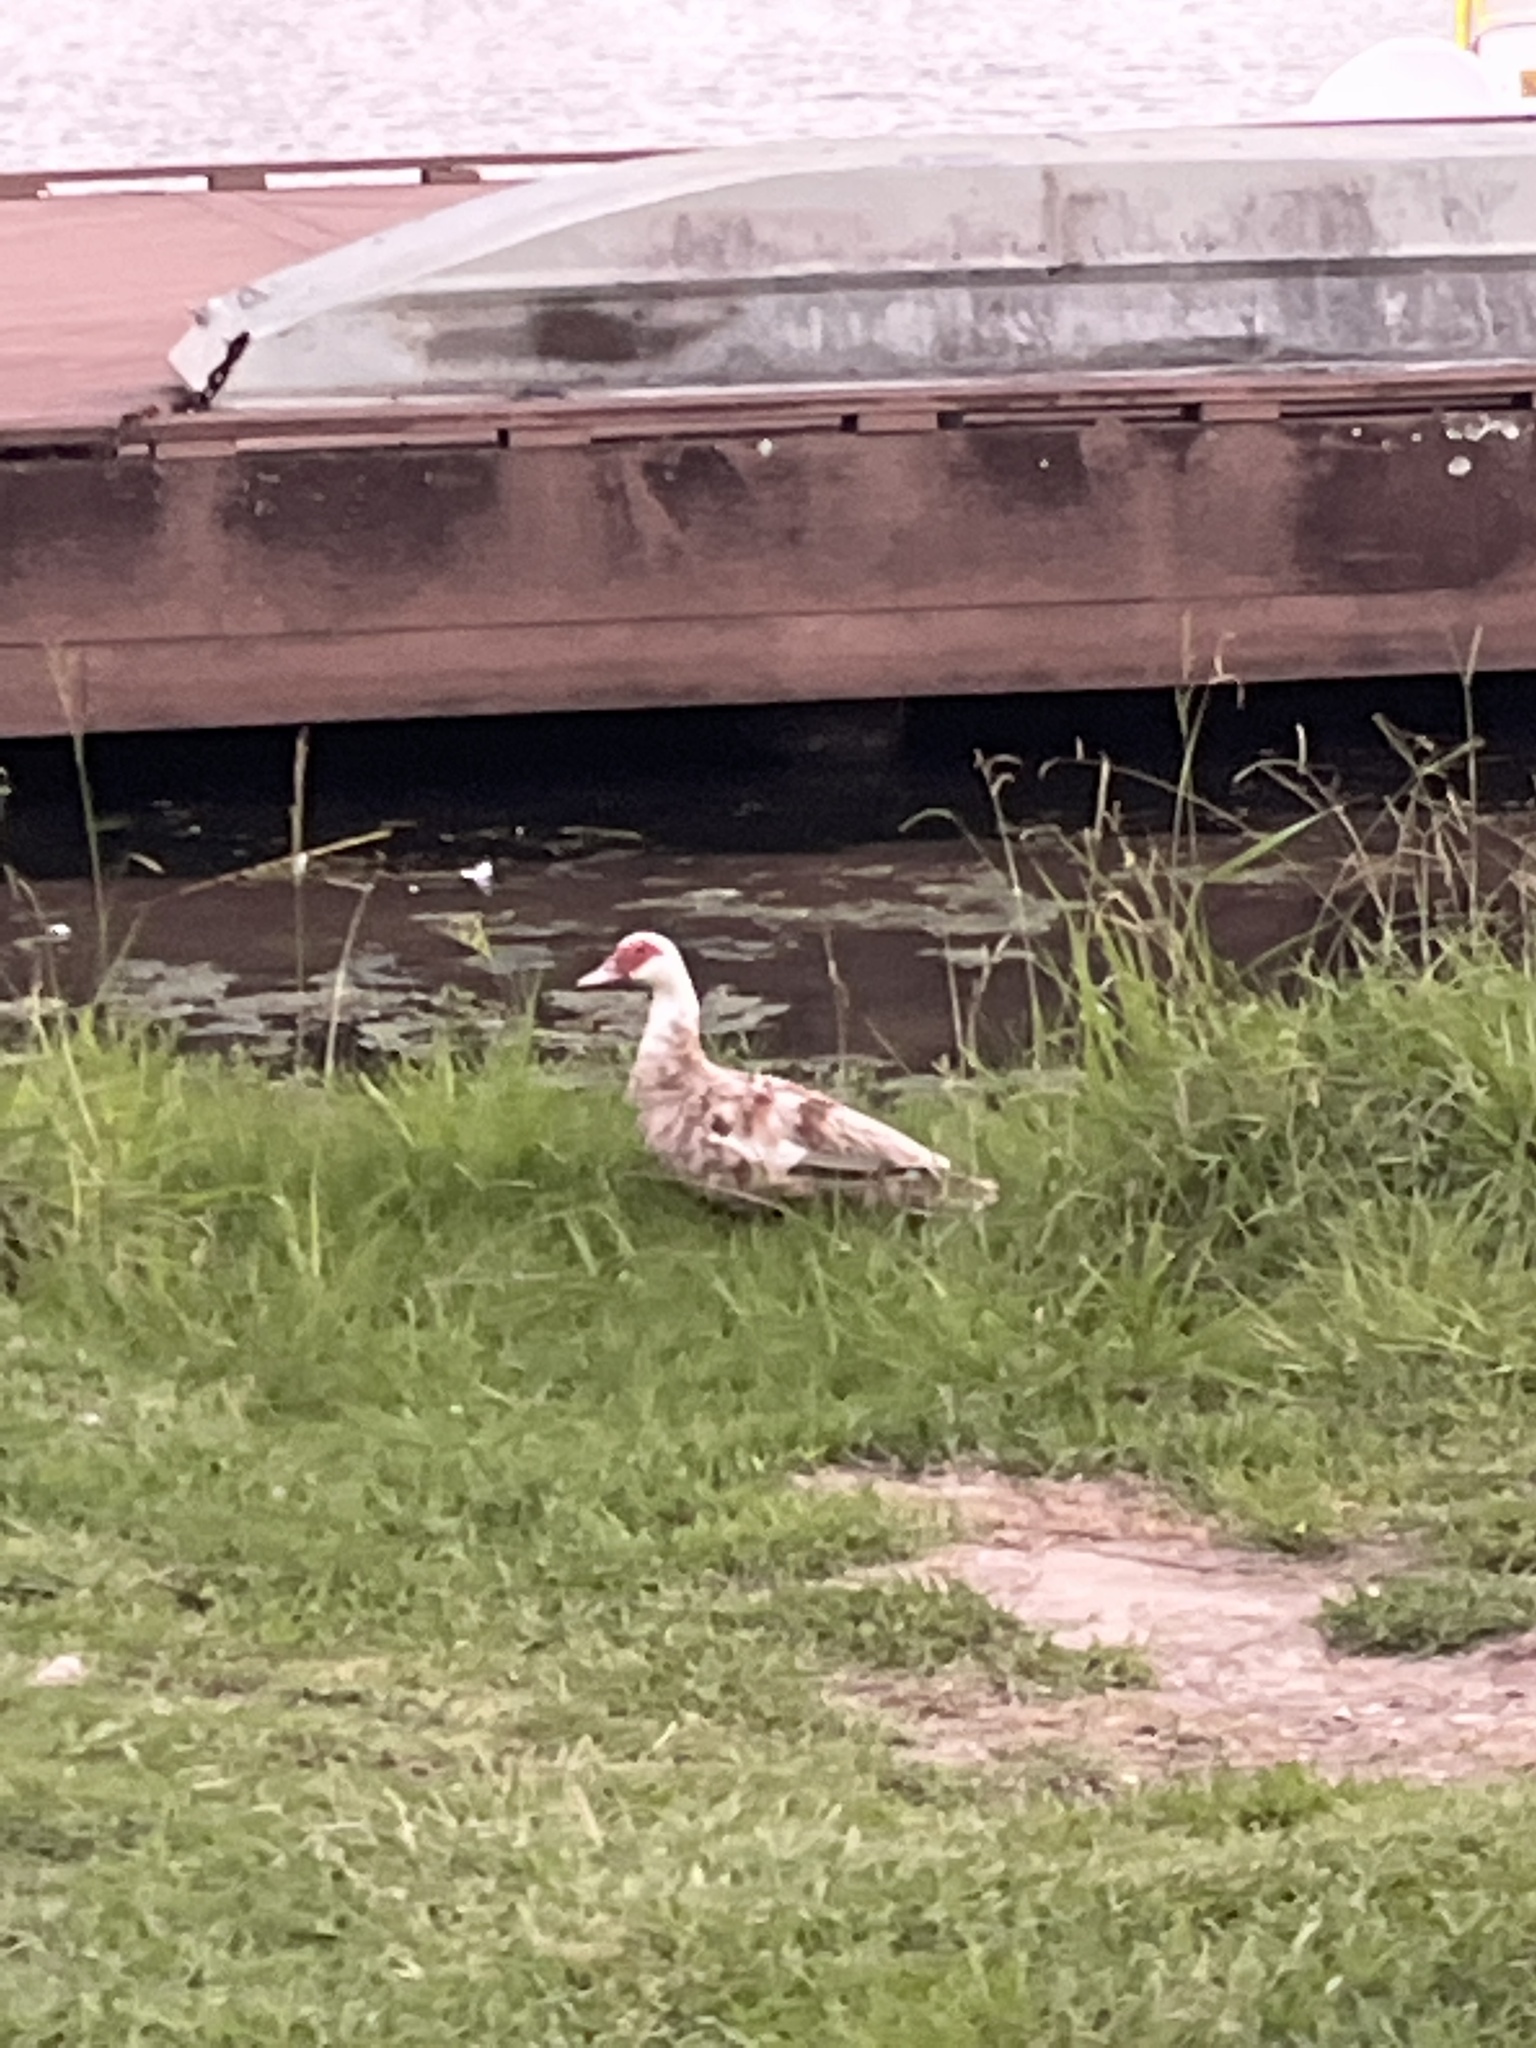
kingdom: Animalia
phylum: Chordata
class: Aves
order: Anseriformes
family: Anatidae
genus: Cairina
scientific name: Cairina moschata
